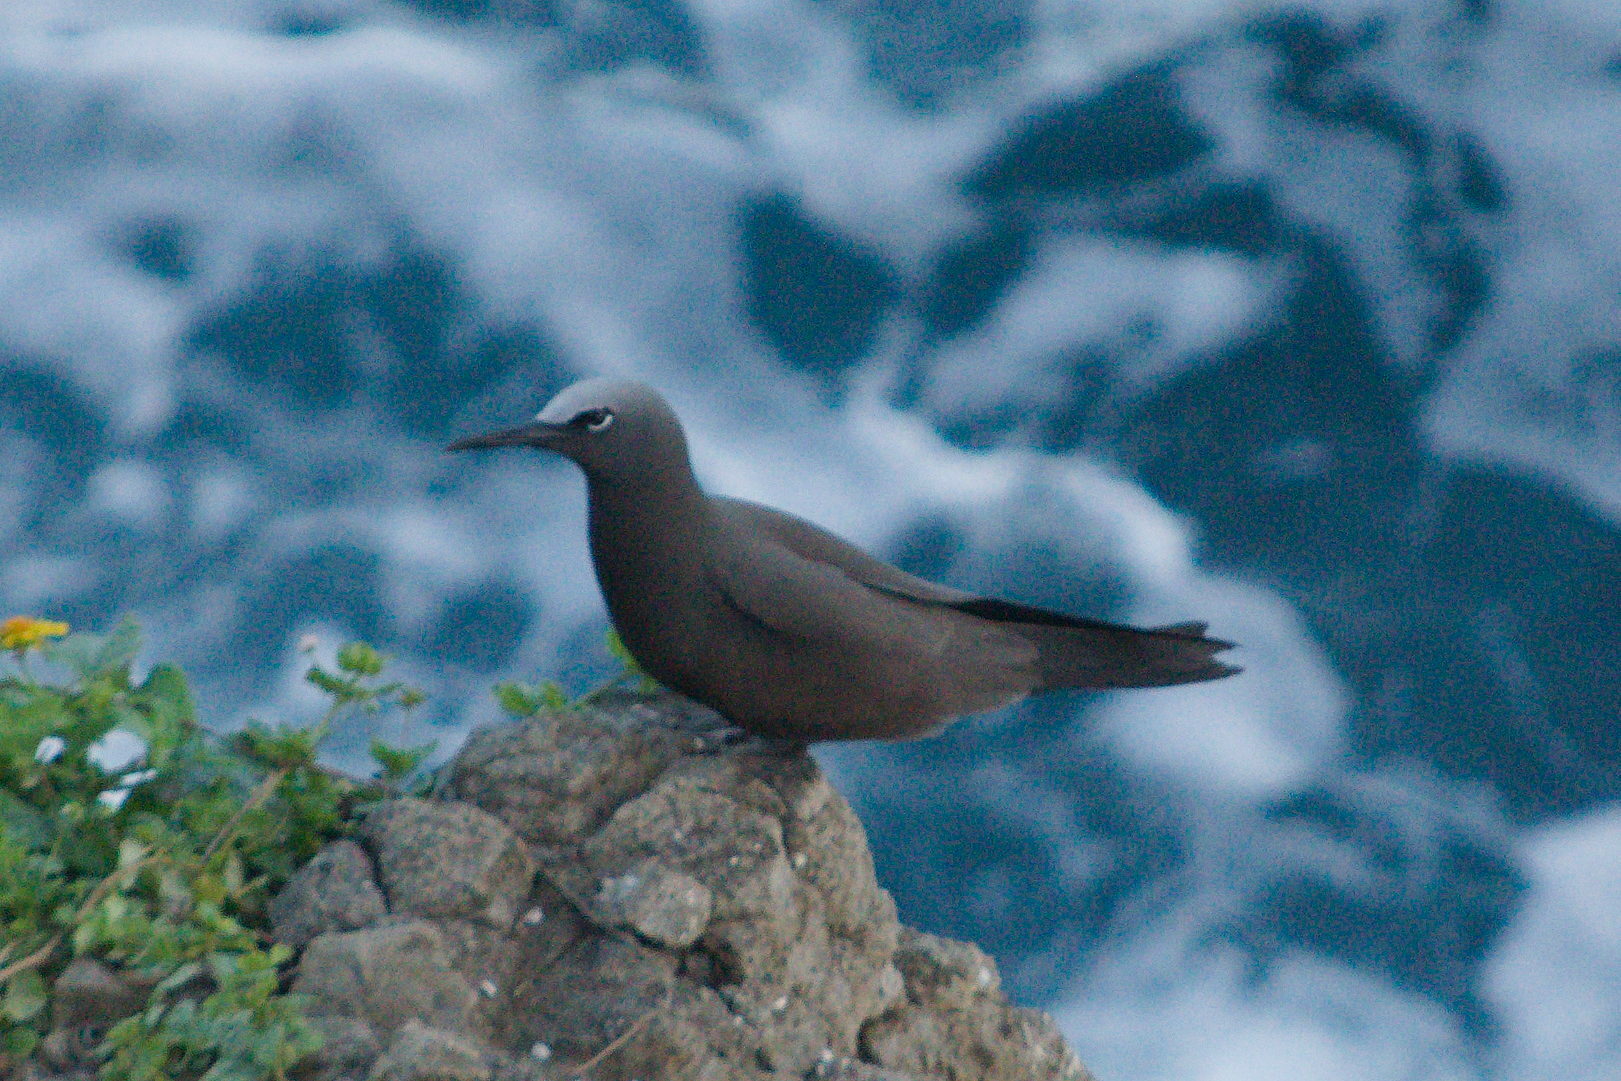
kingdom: Animalia
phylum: Chordata
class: Aves
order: Charadriiformes
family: Laridae
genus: Anous
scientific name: Anous stolidus
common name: Brown noddy
